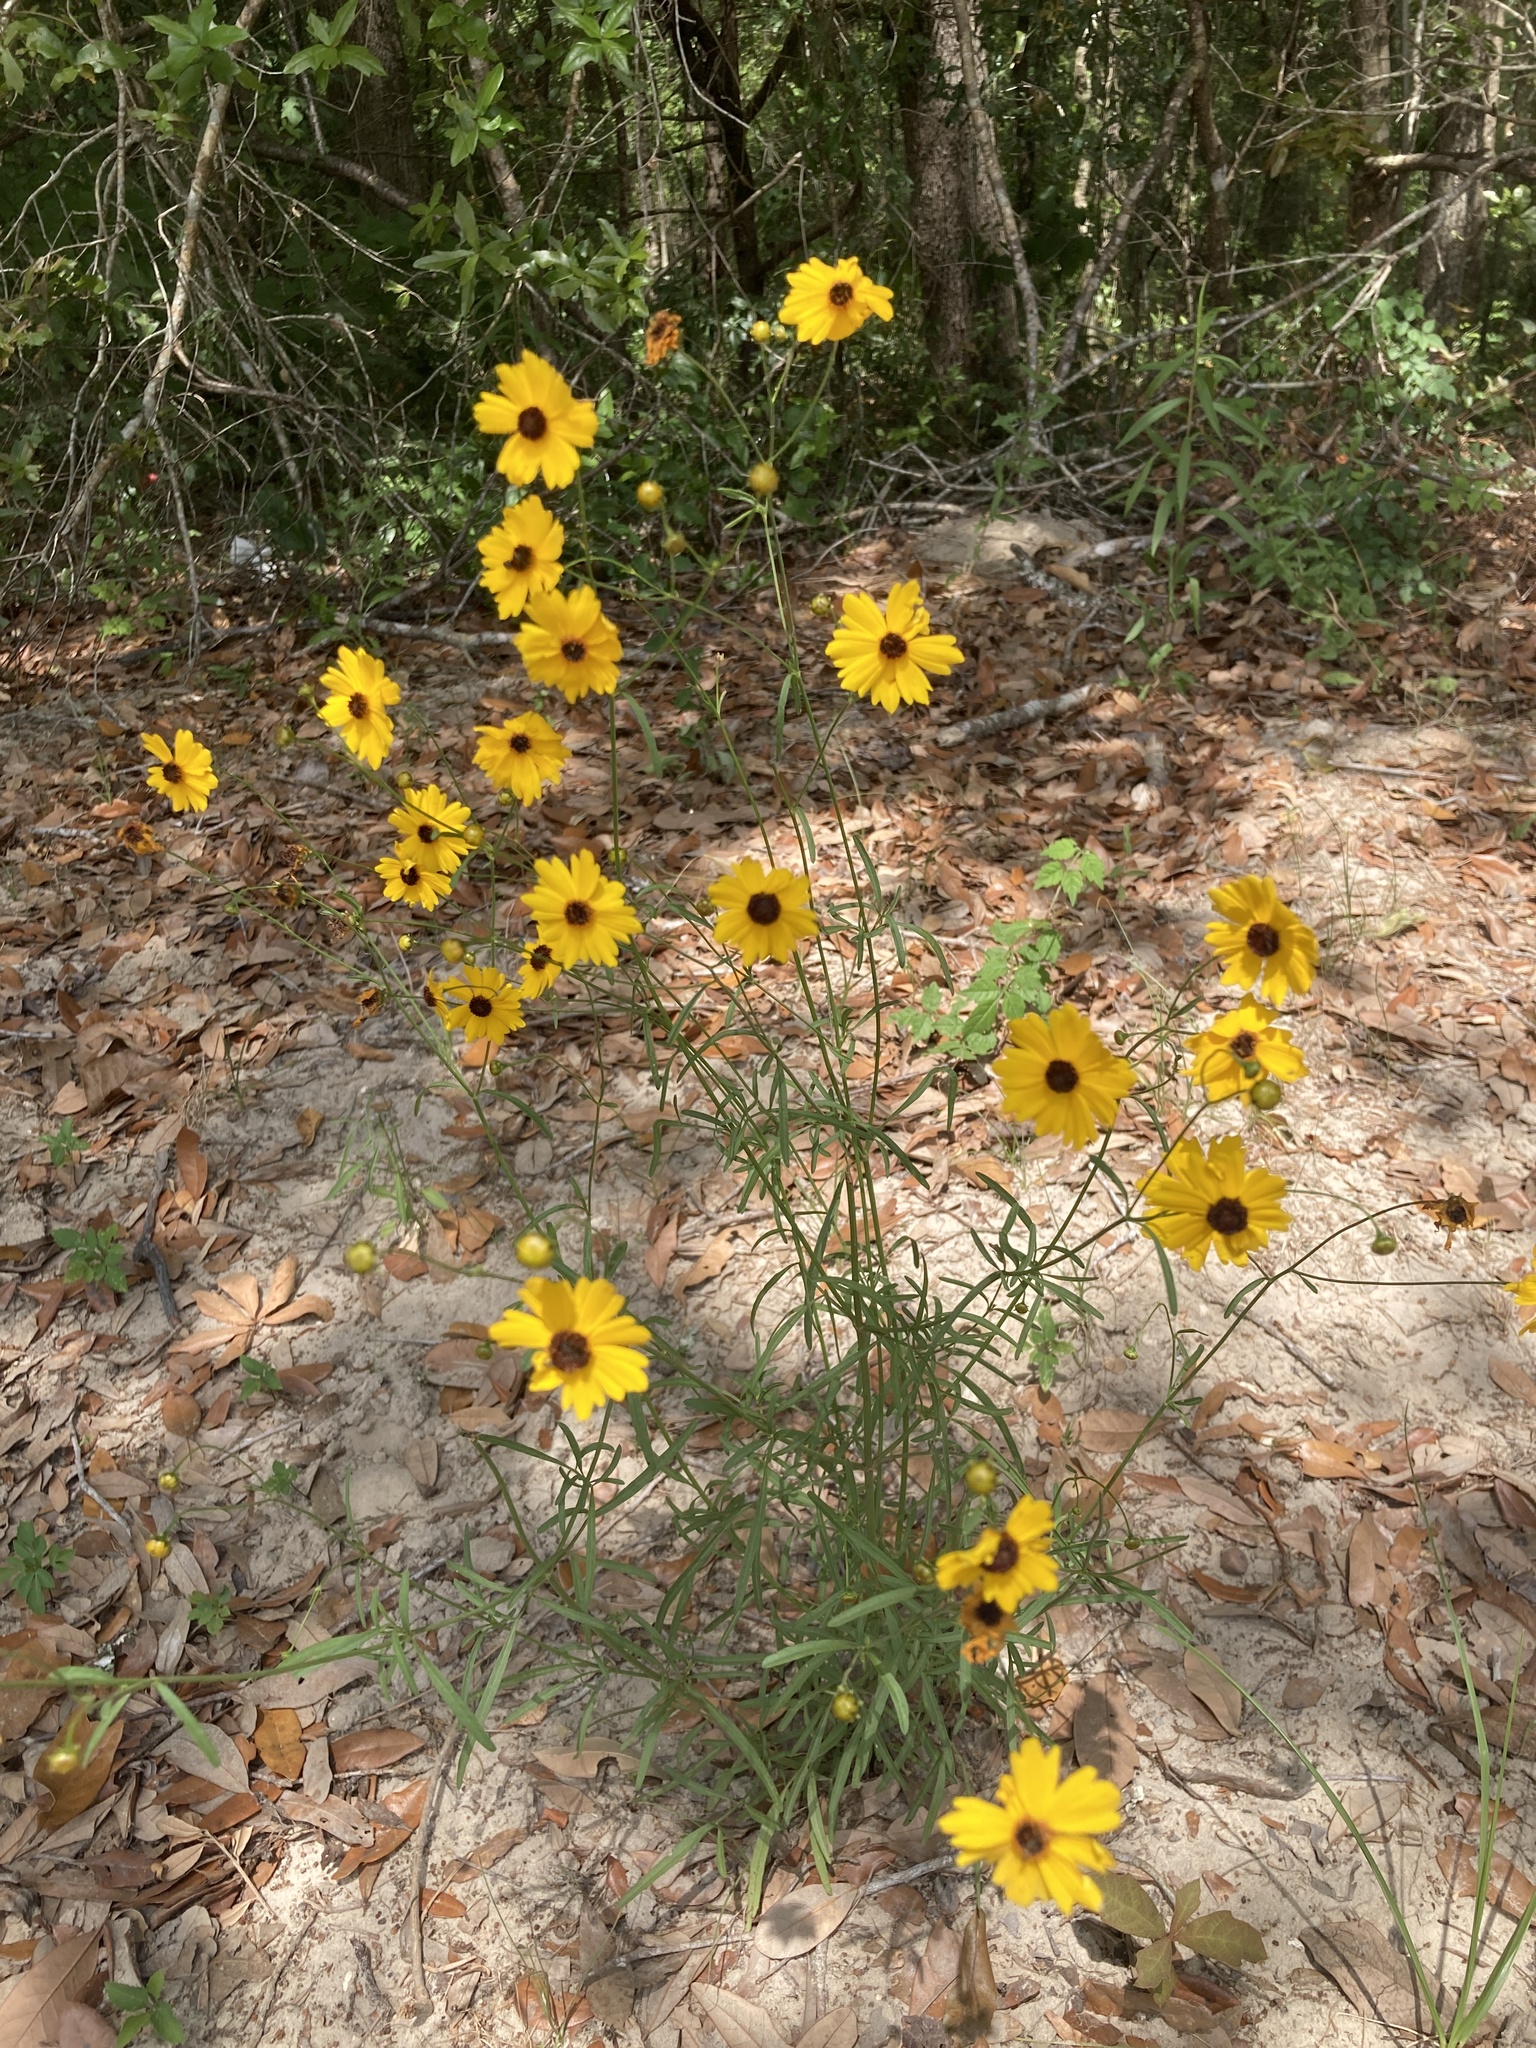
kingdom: Plantae
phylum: Tracheophyta
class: Magnoliopsida
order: Asterales
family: Asteraceae
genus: Coreopsis
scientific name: Coreopsis leavenworthii
